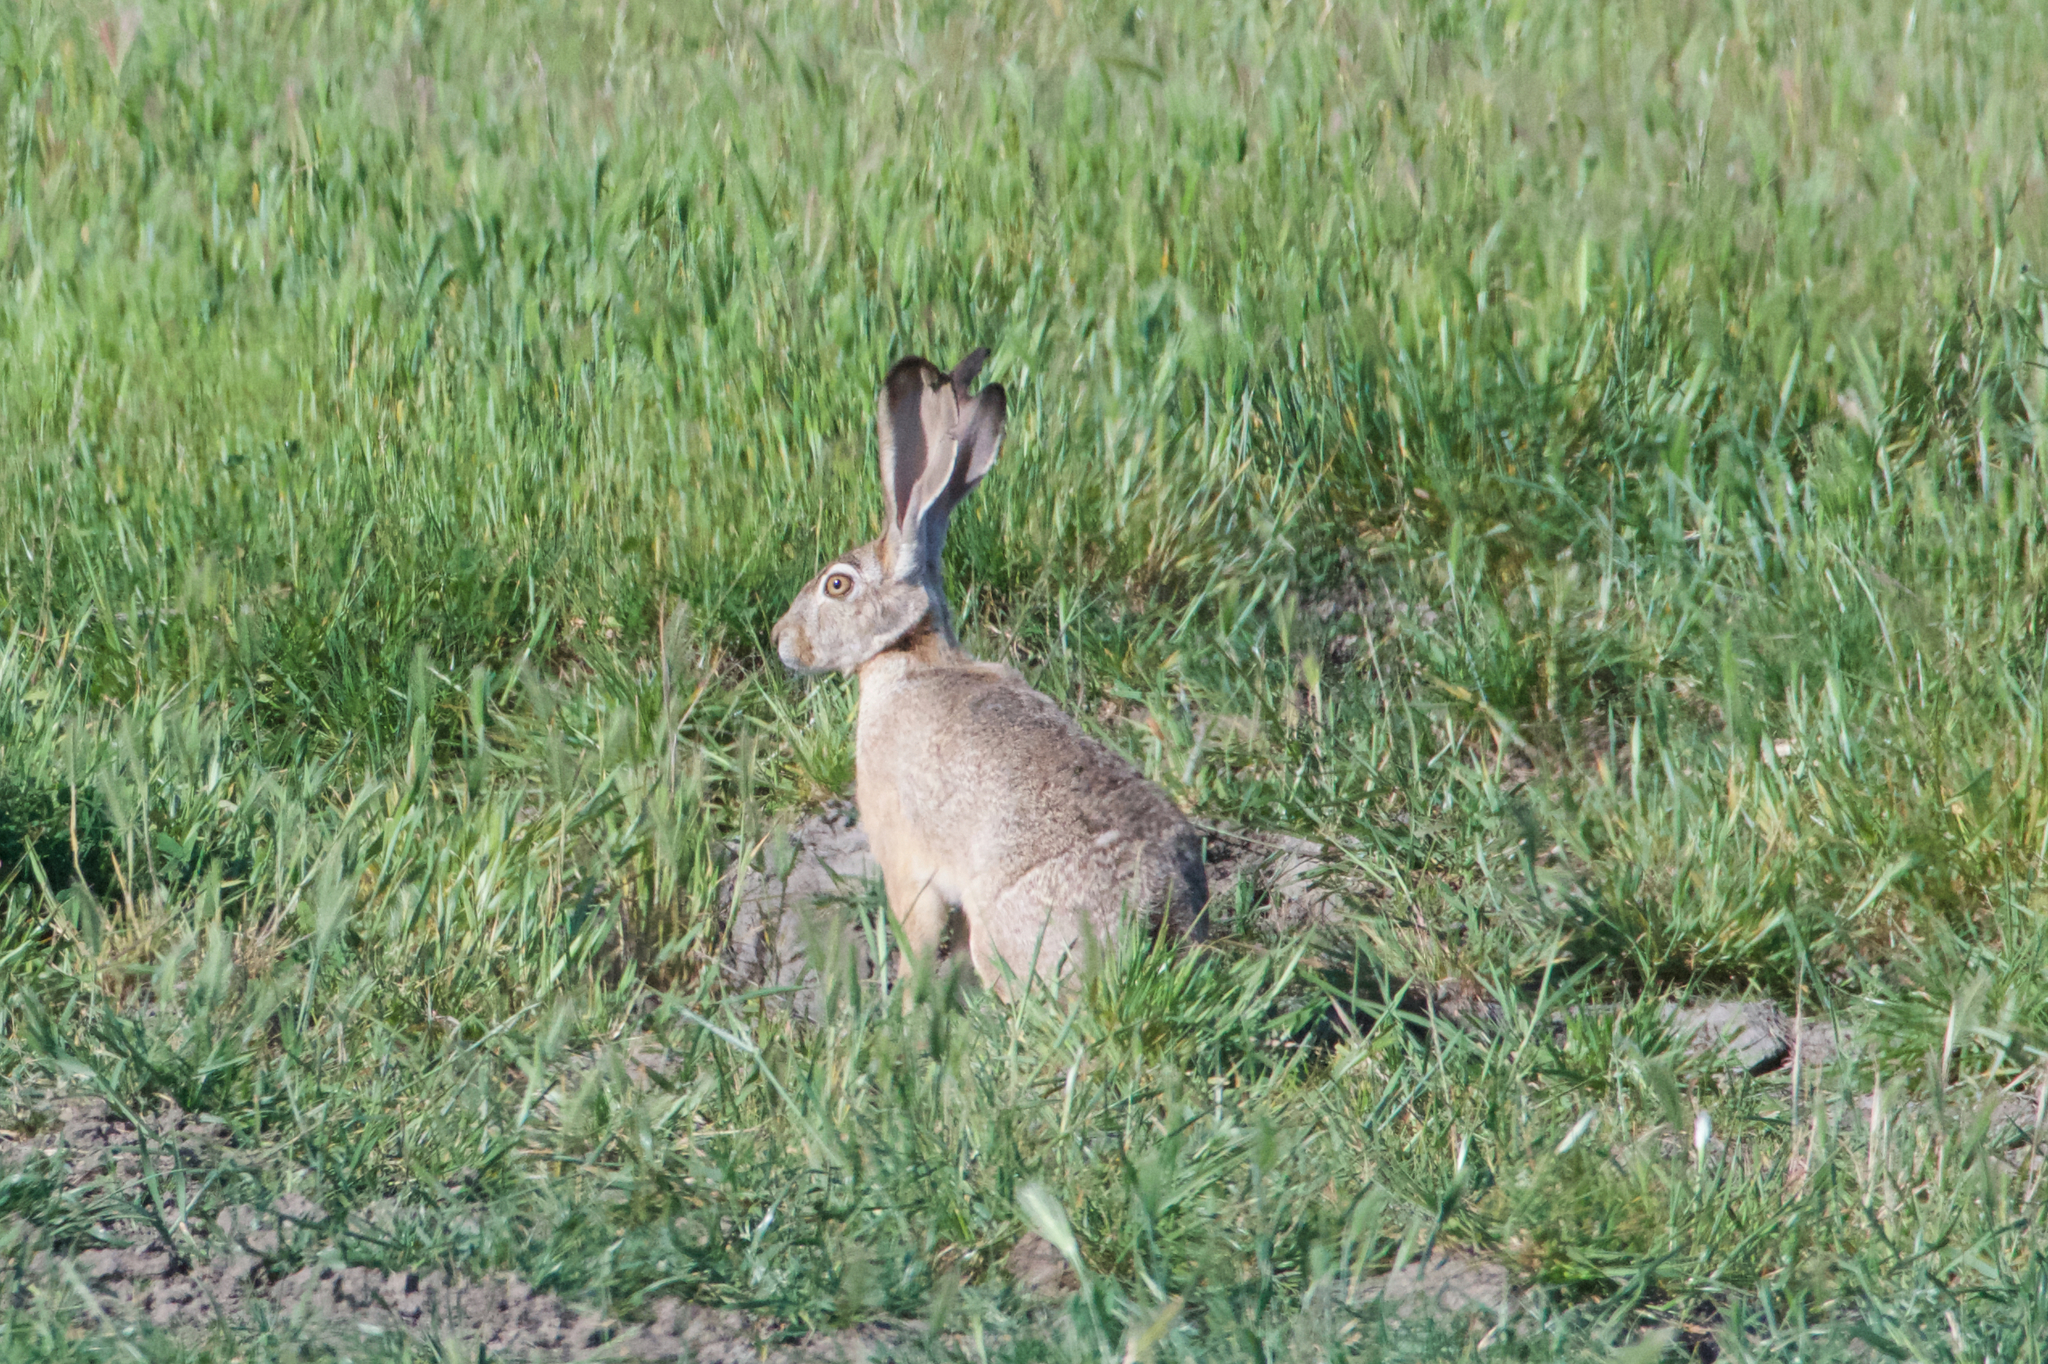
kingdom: Animalia
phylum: Chordata
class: Mammalia
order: Lagomorpha
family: Leporidae
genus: Lepus
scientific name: Lepus californicus
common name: Black-tailed jackrabbit
